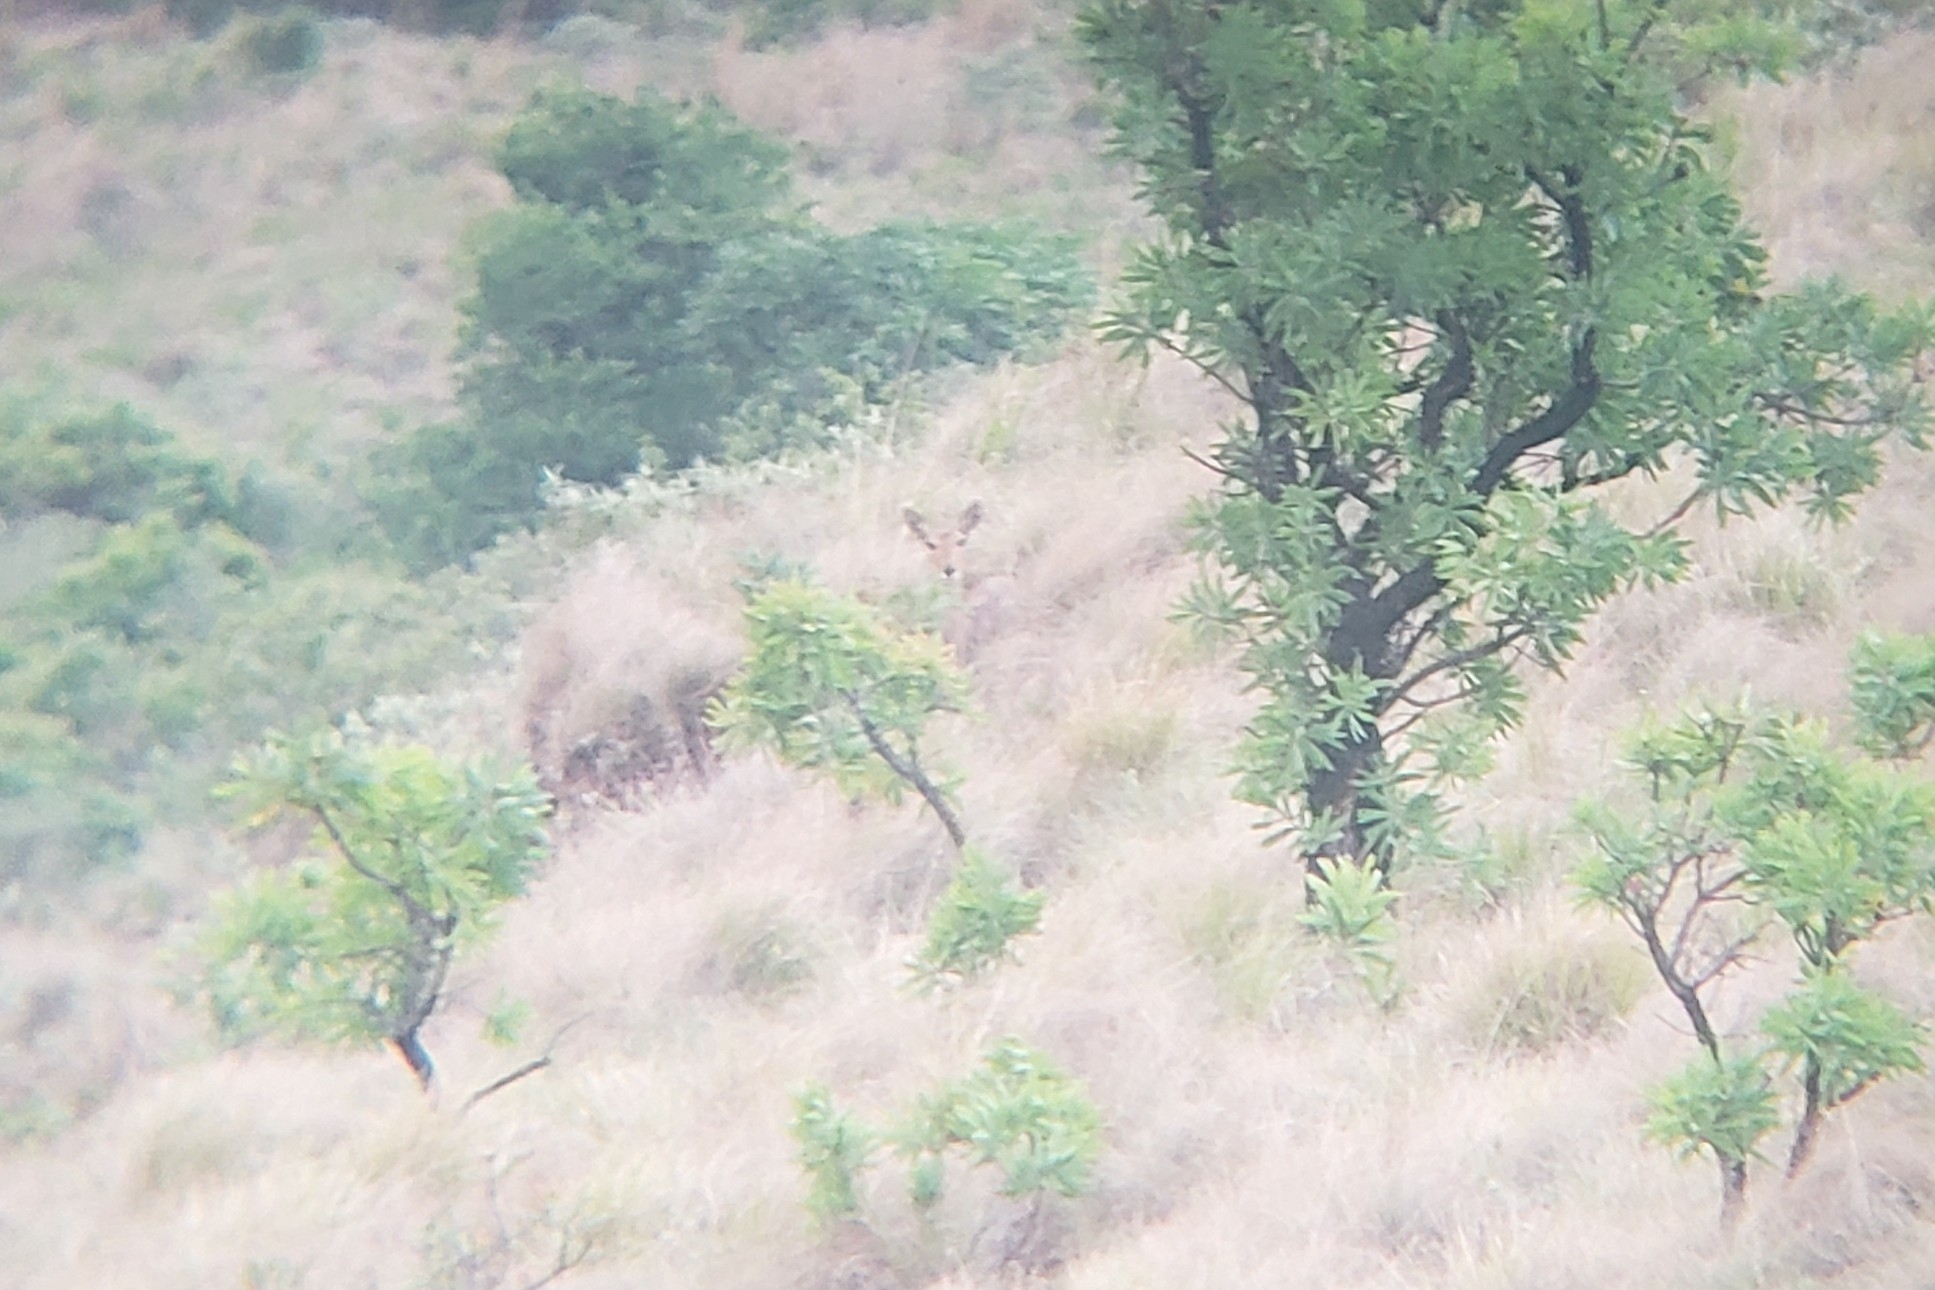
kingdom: Animalia
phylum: Chordata
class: Mammalia
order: Artiodactyla
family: Bovidae
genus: Redunca
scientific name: Redunca fulvorufula
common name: Mountain reedbuck
